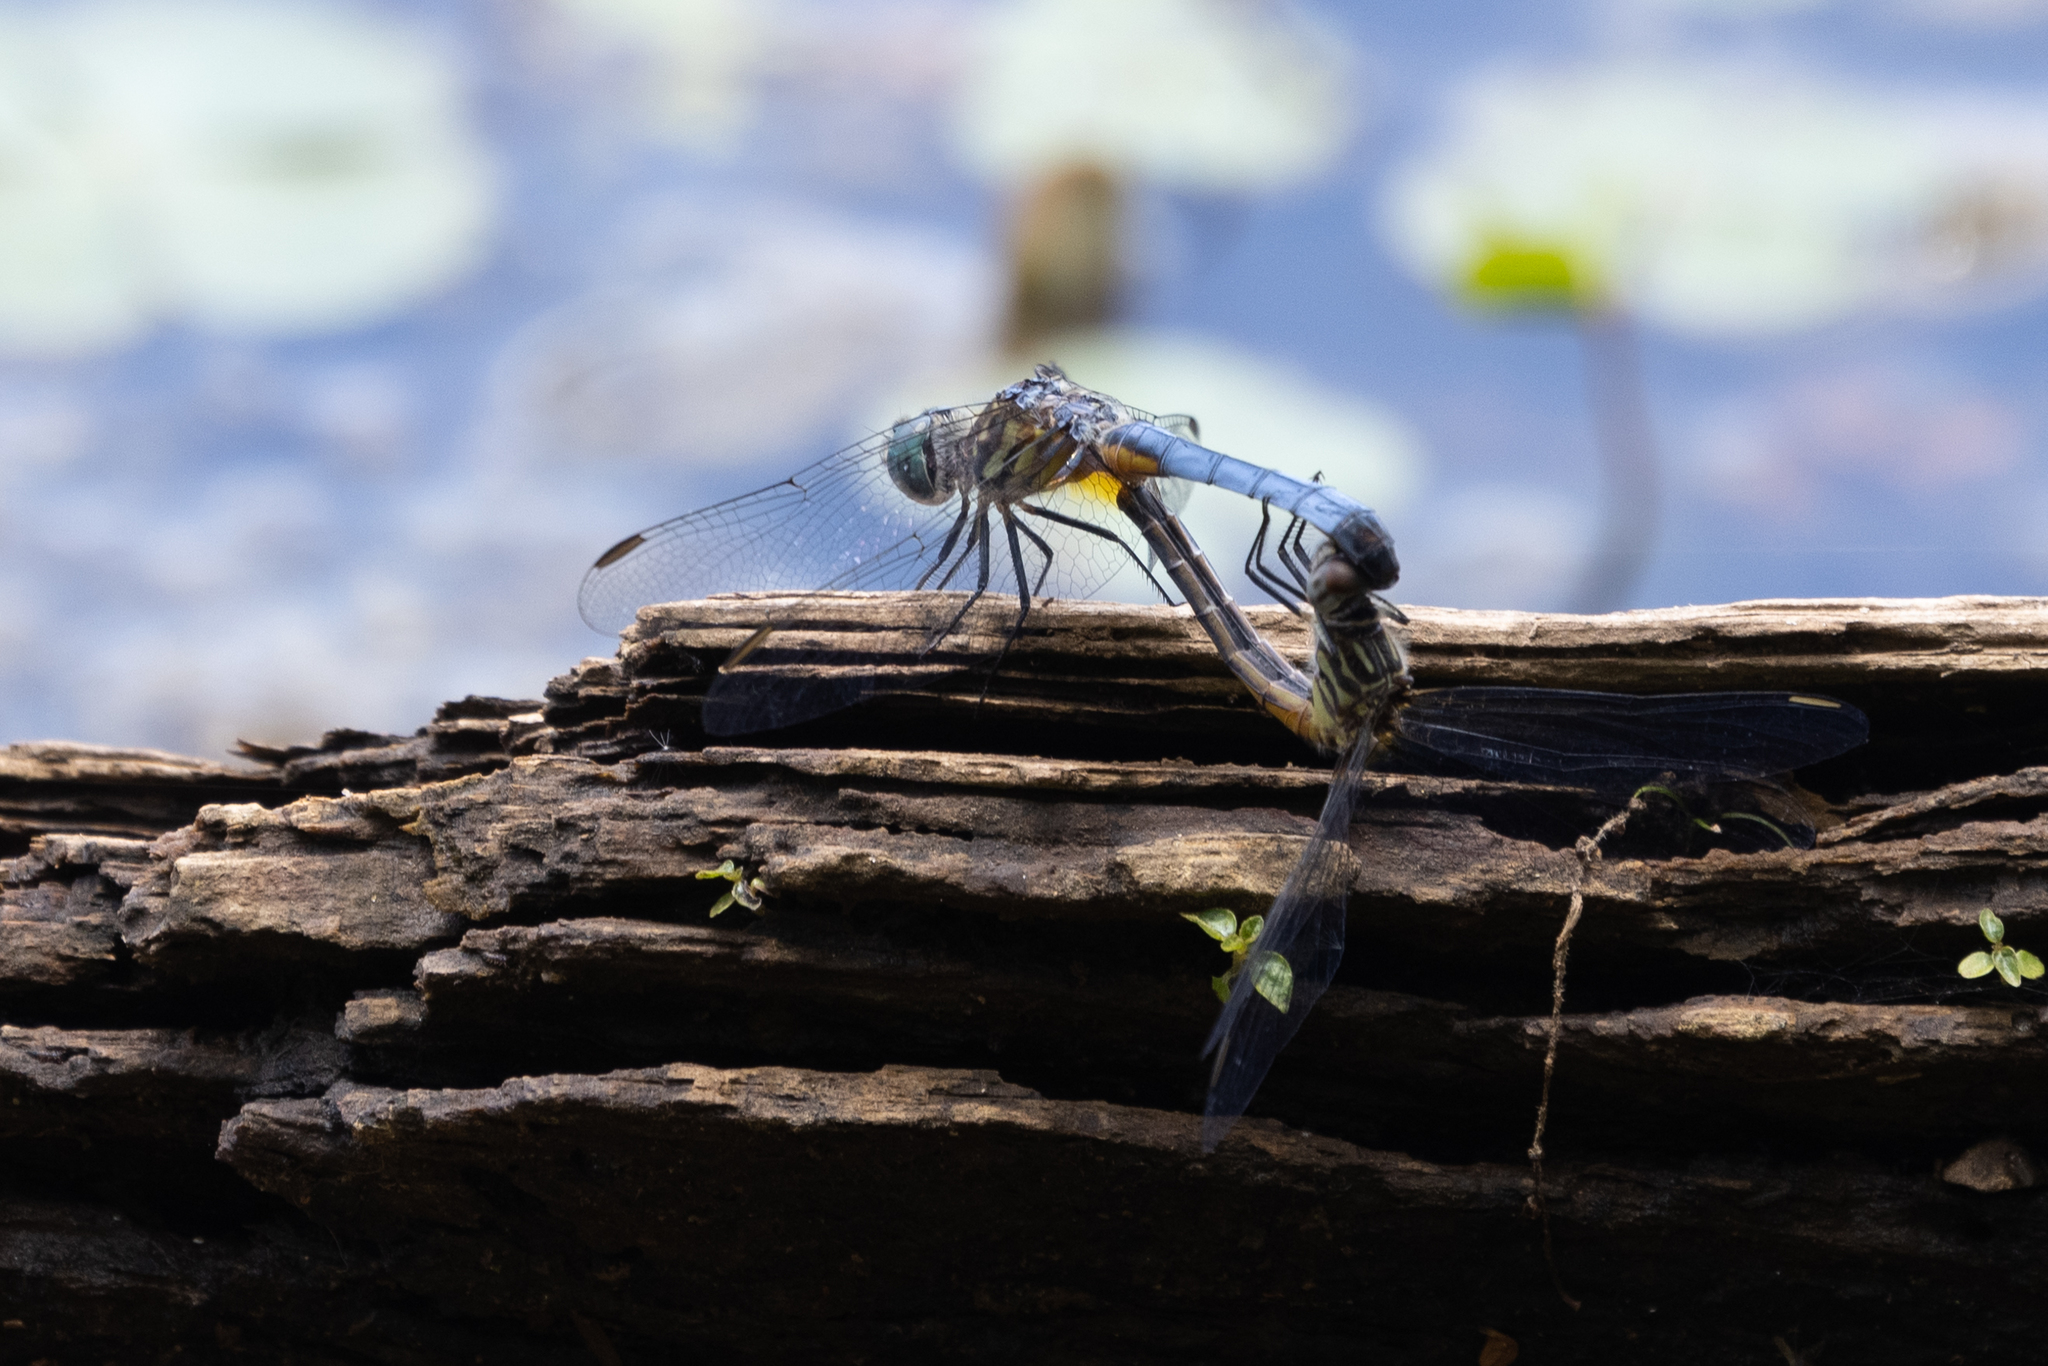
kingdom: Animalia
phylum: Arthropoda
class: Insecta
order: Odonata
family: Libellulidae
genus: Pachydiplax
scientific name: Pachydiplax longipennis
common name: Blue dasher
